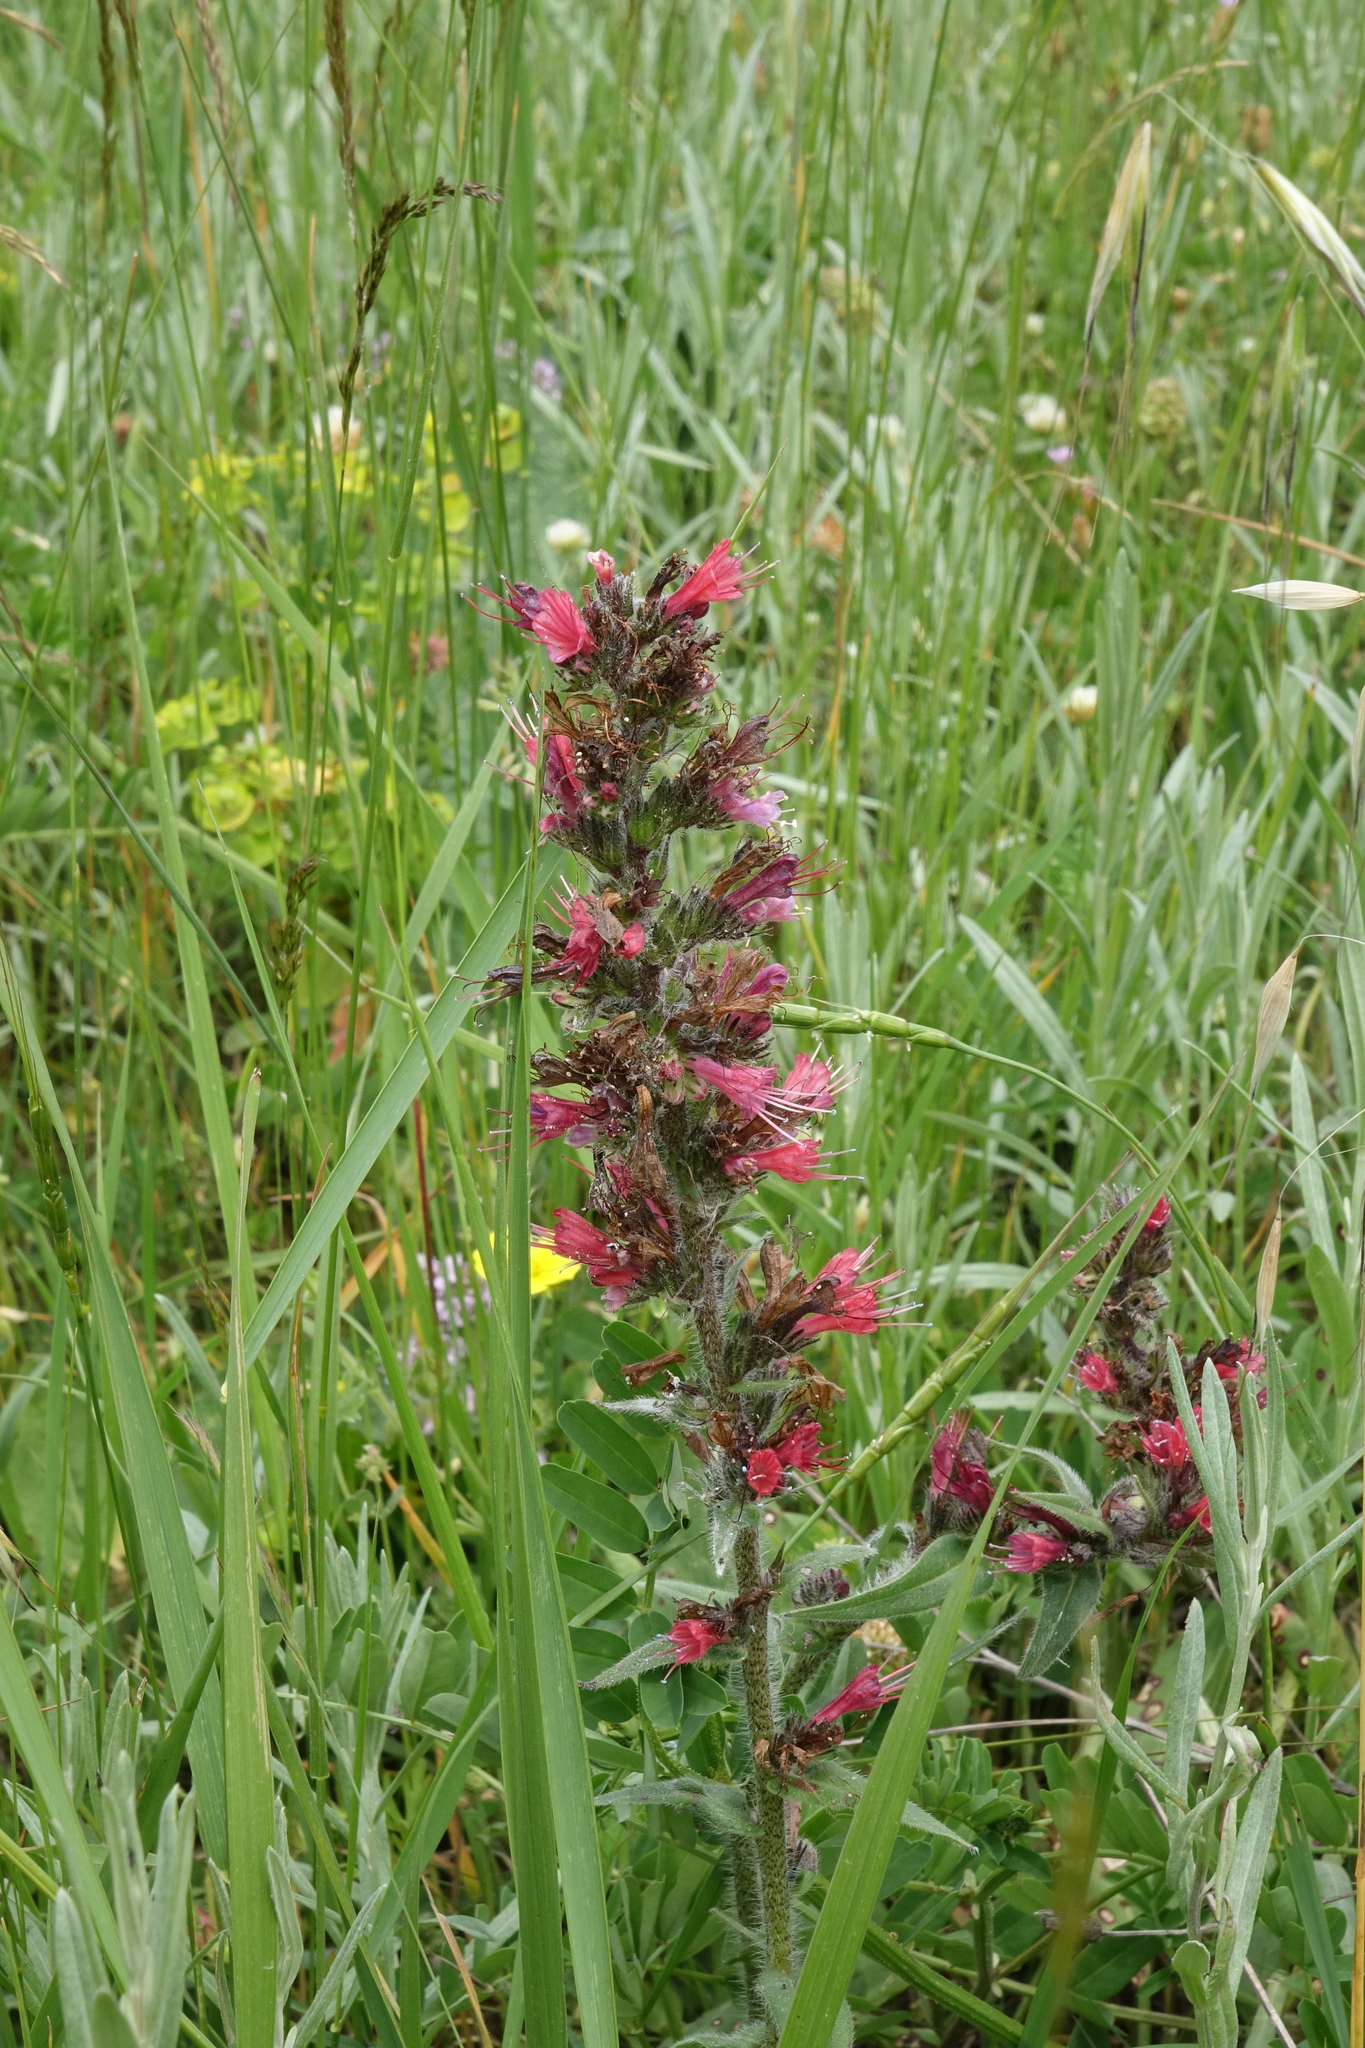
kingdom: Plantae
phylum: Tracheophyta
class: Magnoliopsida
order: Boraginales
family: Boraginaceae
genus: Pontechium
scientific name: Pontechium maculatum
